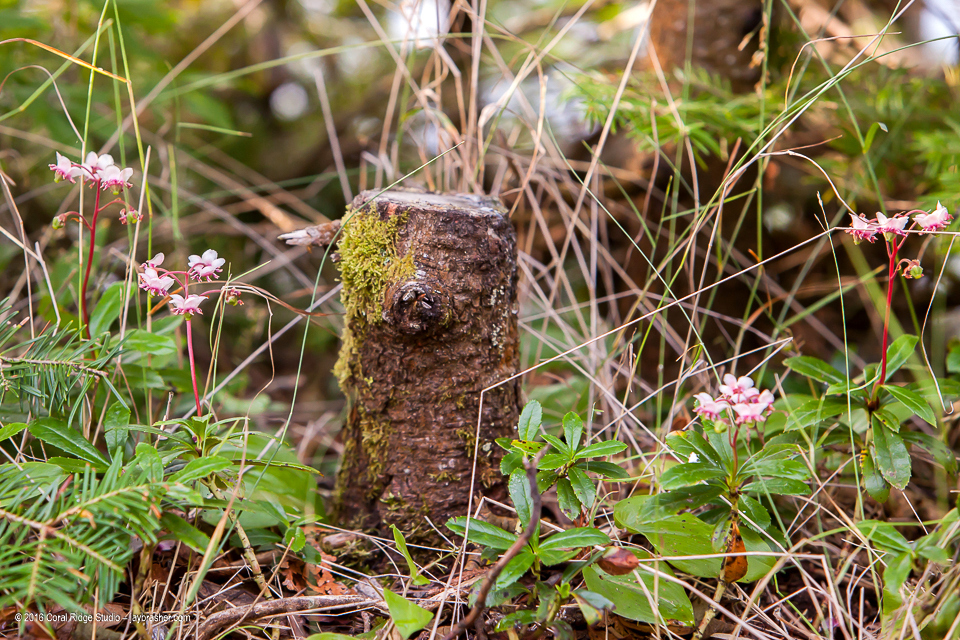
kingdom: Plantae
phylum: Tracheophyta
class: Magnoliopsida
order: Ericales
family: Ericaceae
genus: Chimaphila
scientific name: Chimaphila umbellata
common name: Pipsissewa
